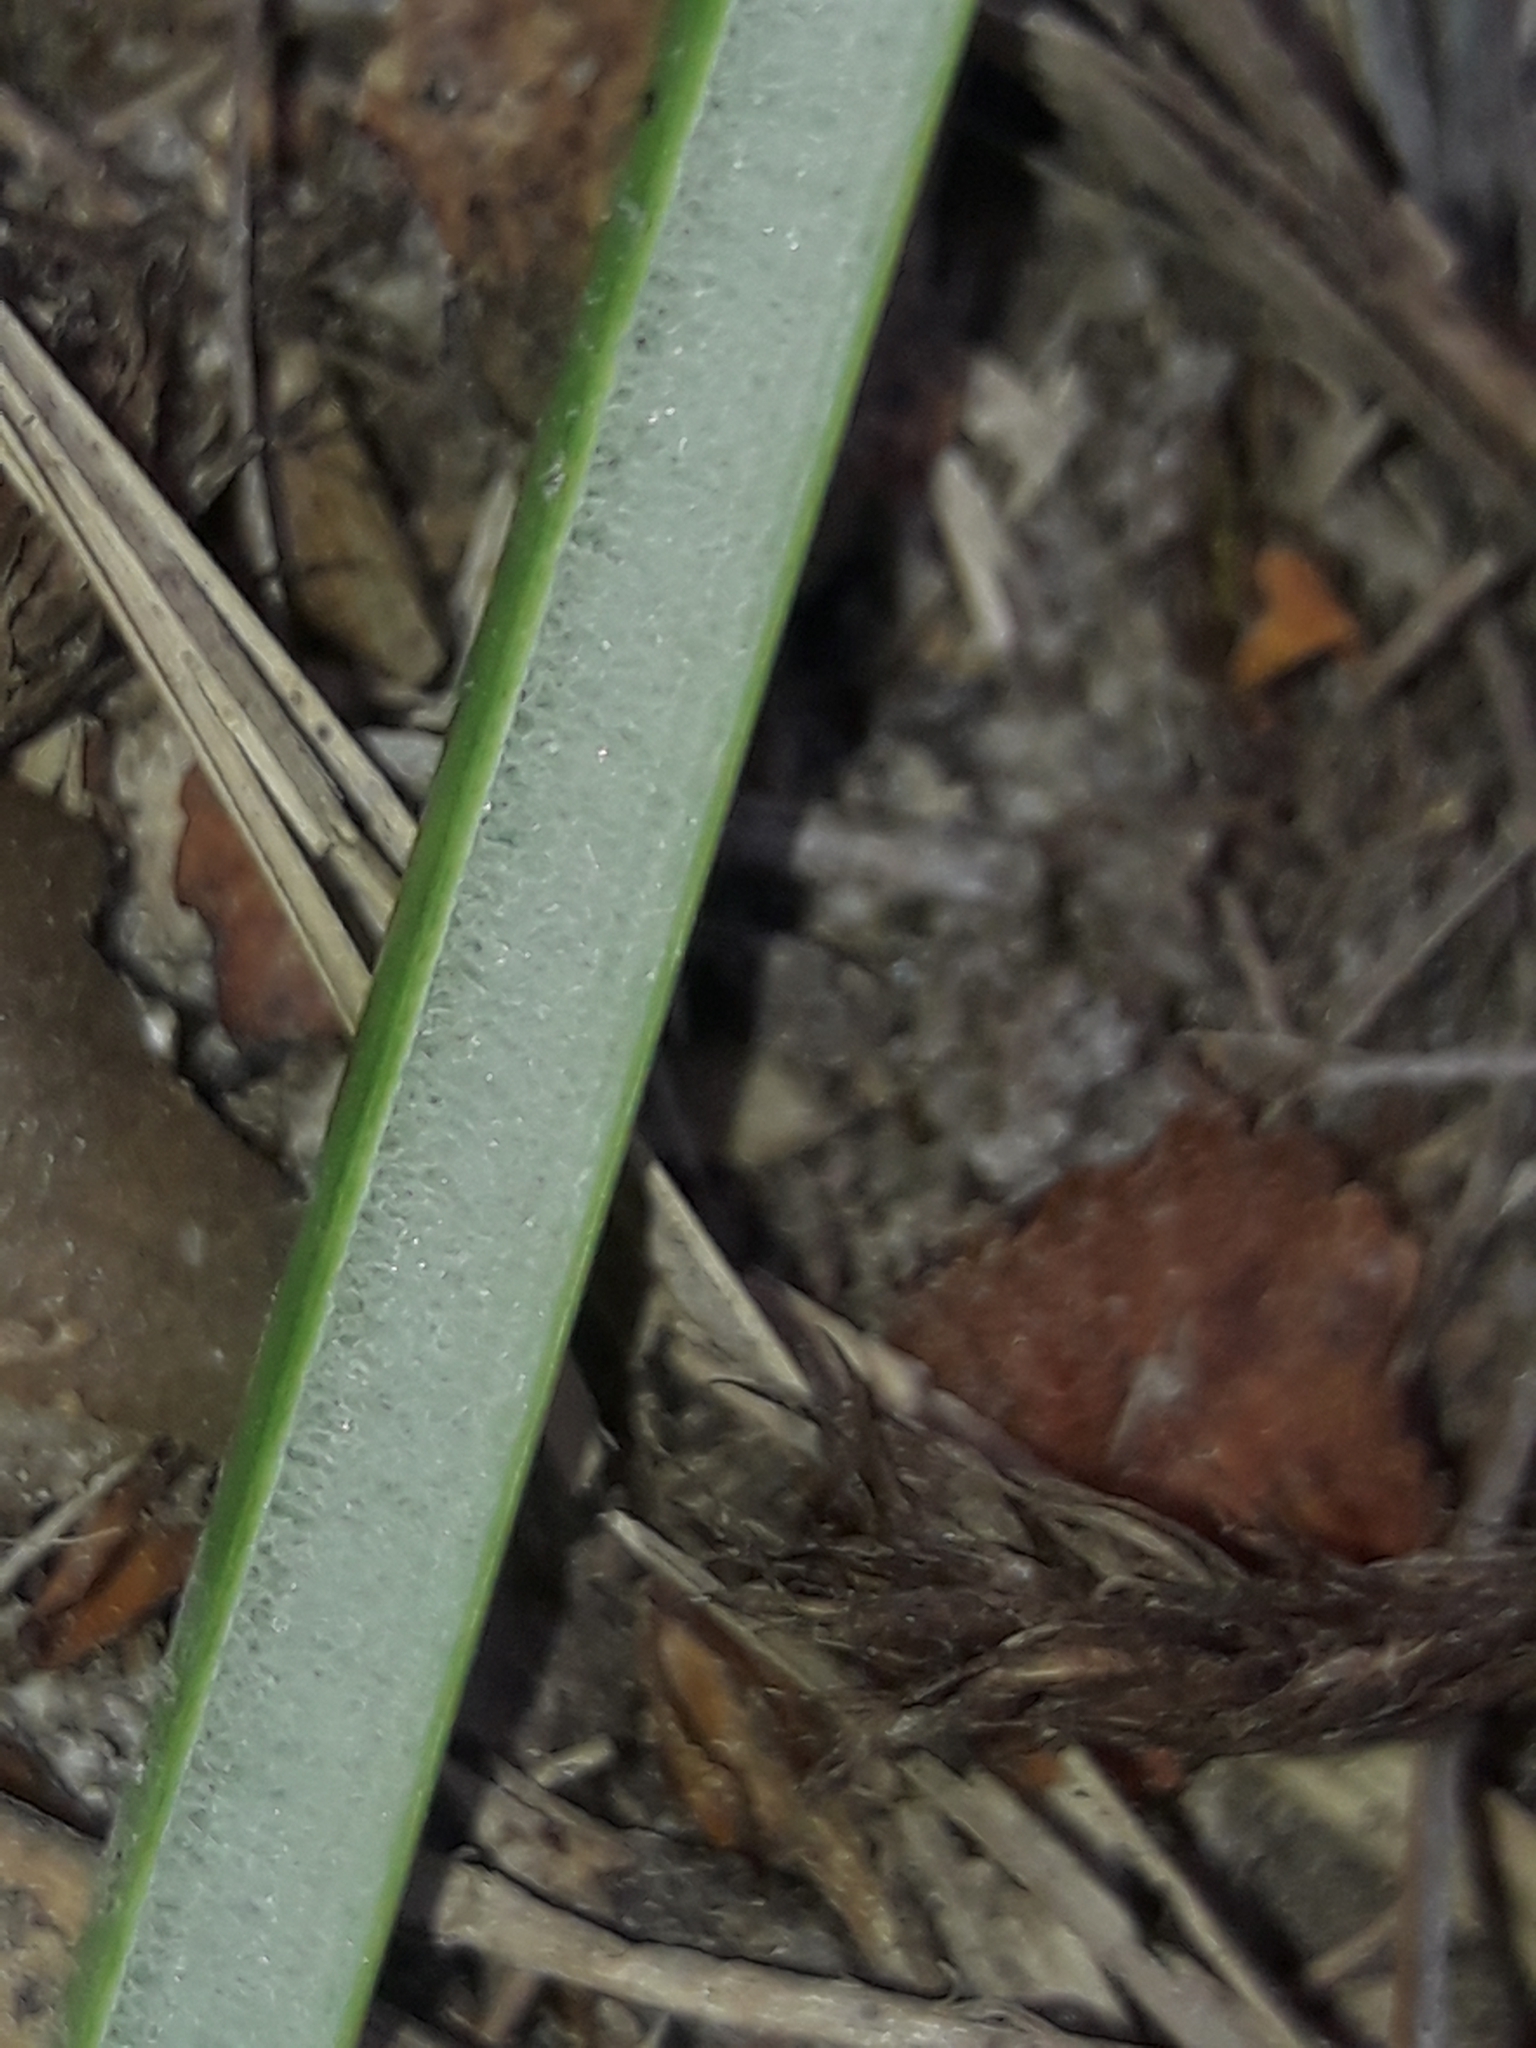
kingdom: Plantae
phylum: Tracheophyta
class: Liliopsida
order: Poales
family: Juncaceae
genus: Juncus
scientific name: Juncus effusus
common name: Soft rush
